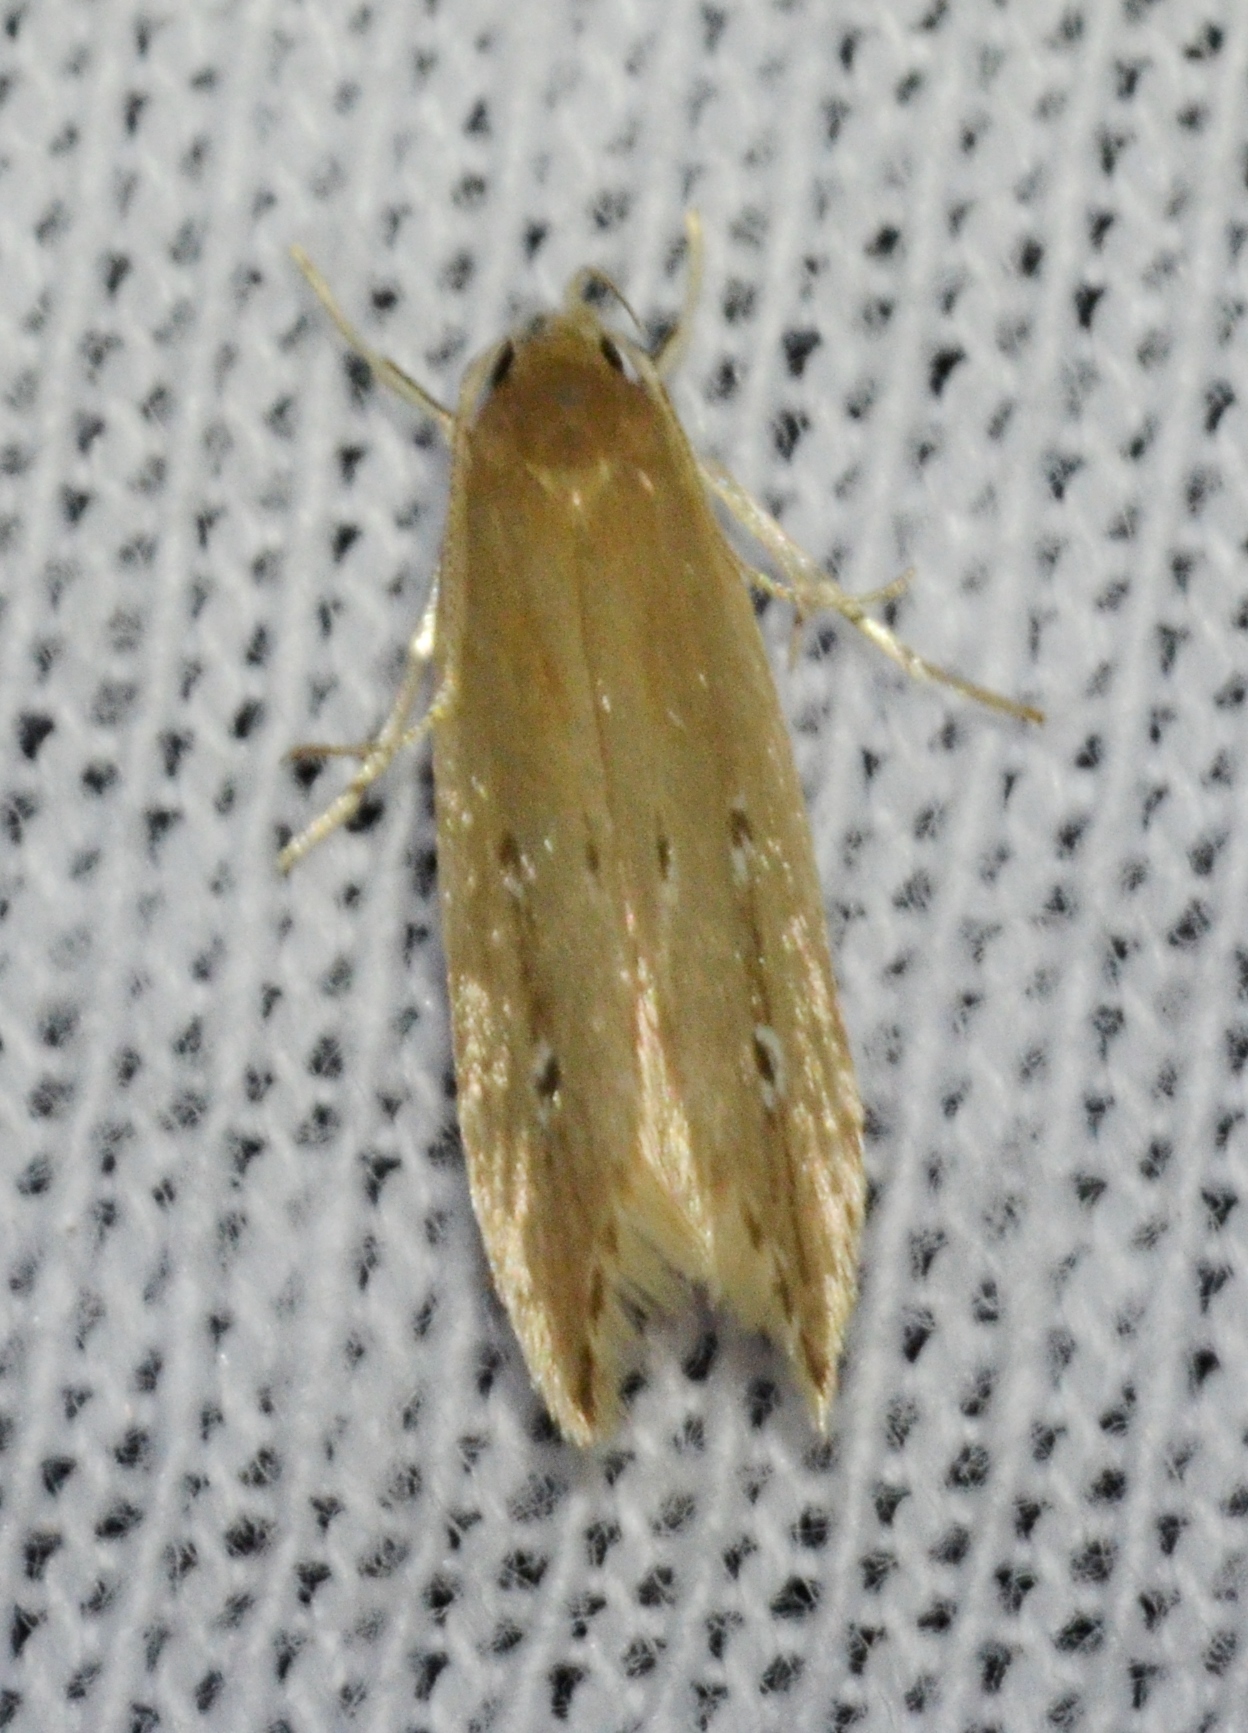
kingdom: Animalia
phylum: Arthropoda
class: Insecta
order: Lepidoptera
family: Cosmopterigidae
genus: Limnaecia
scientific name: Limnaecia phragmitella
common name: Bulrush cosmet
